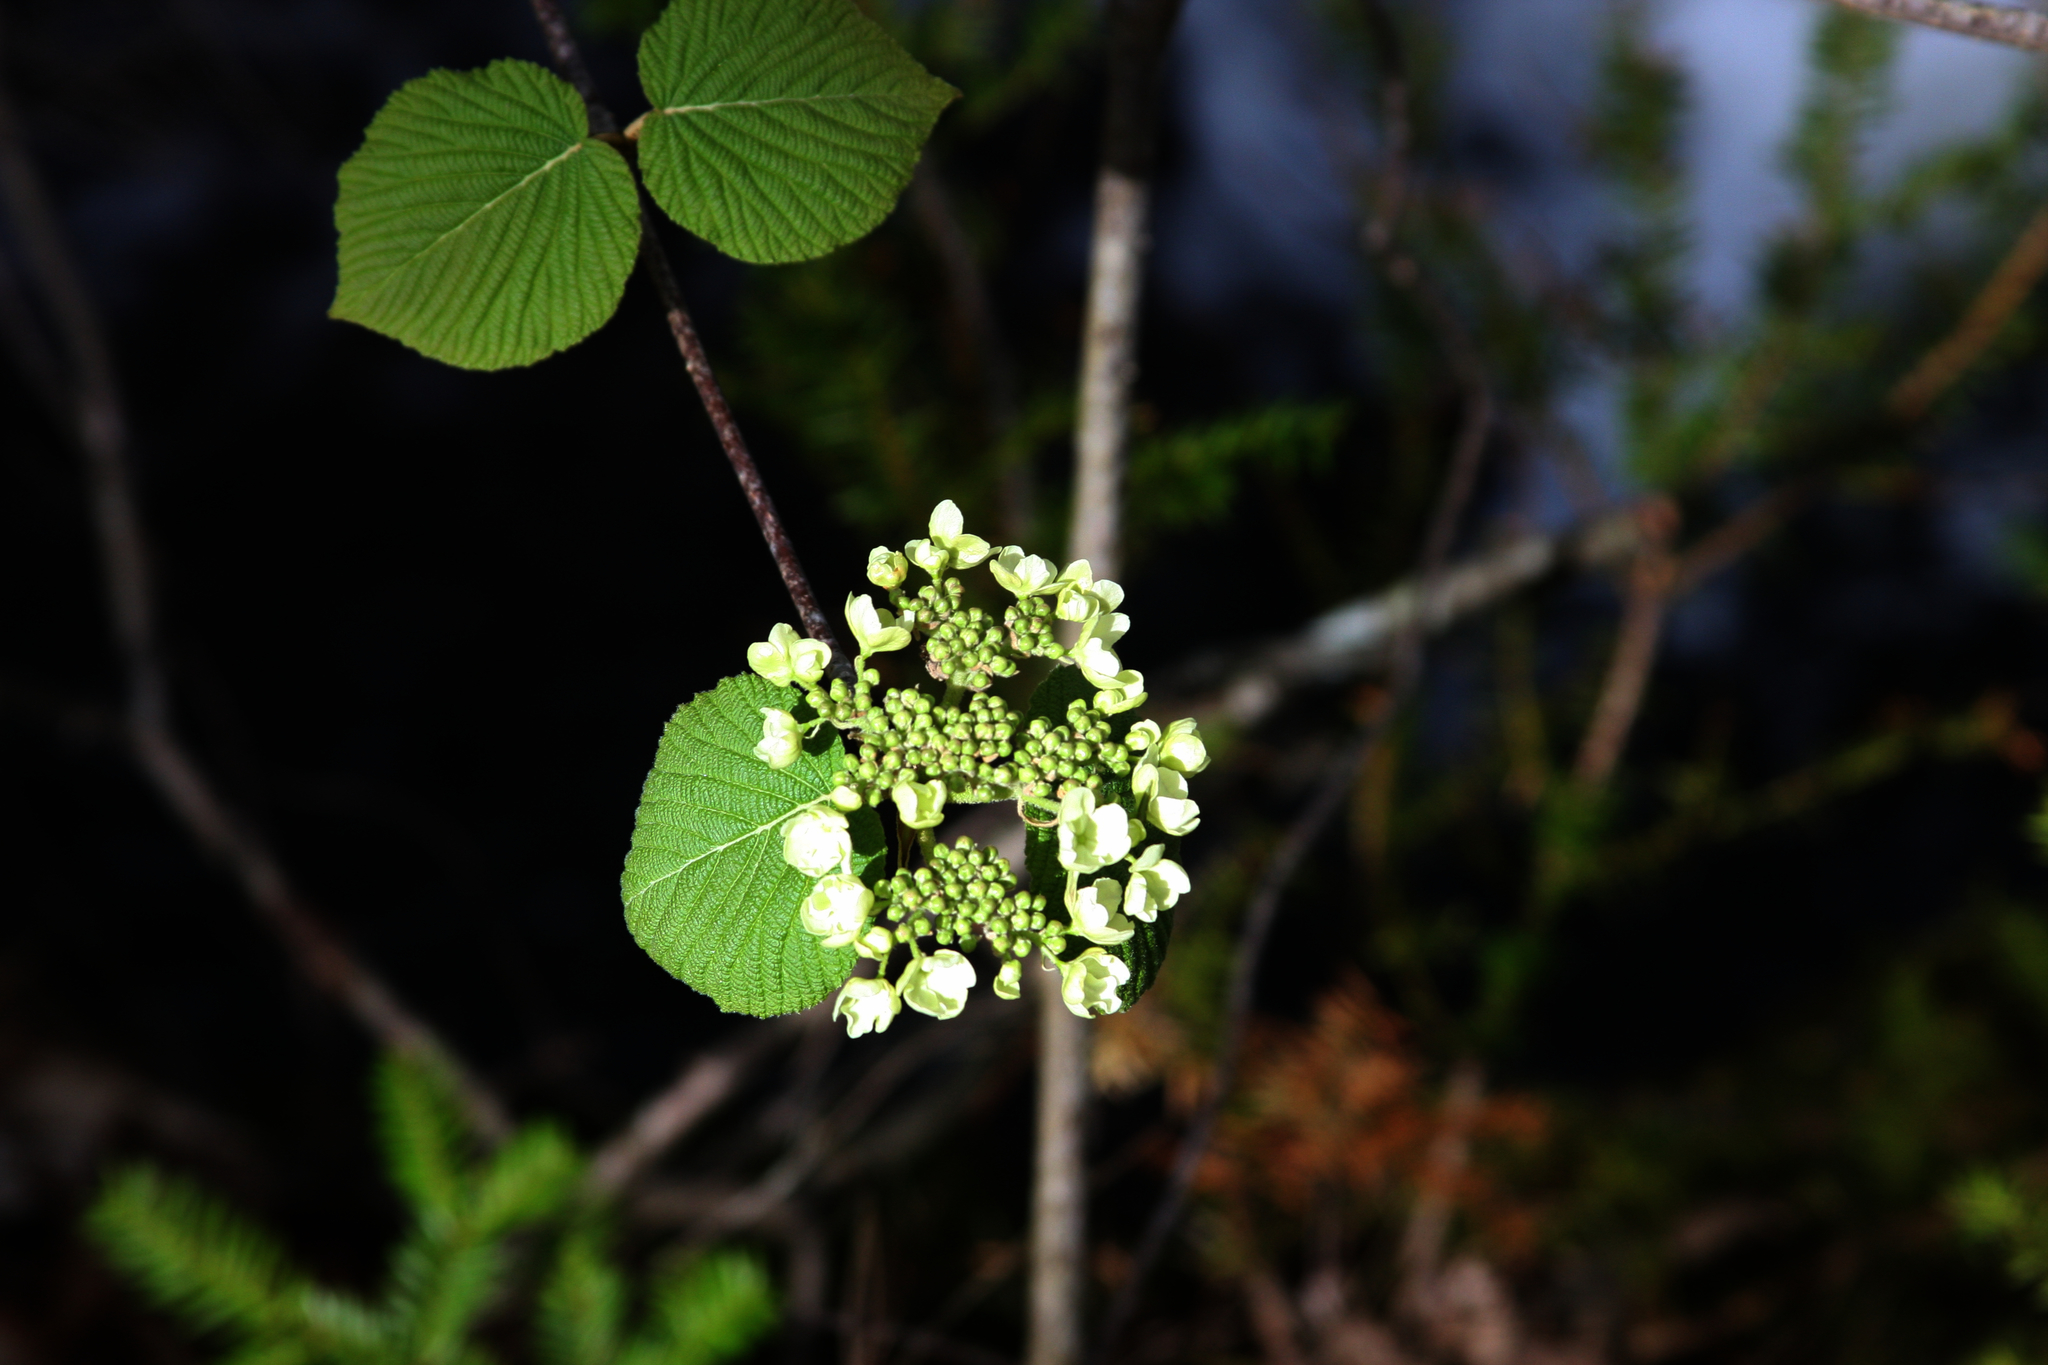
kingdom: Plantae
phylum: Tracheophyta
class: Magnoliopsida
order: Dipsacales
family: Viburnaceae
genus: Viburnum
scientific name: Viburnum lantanoides
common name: Hobblebush
